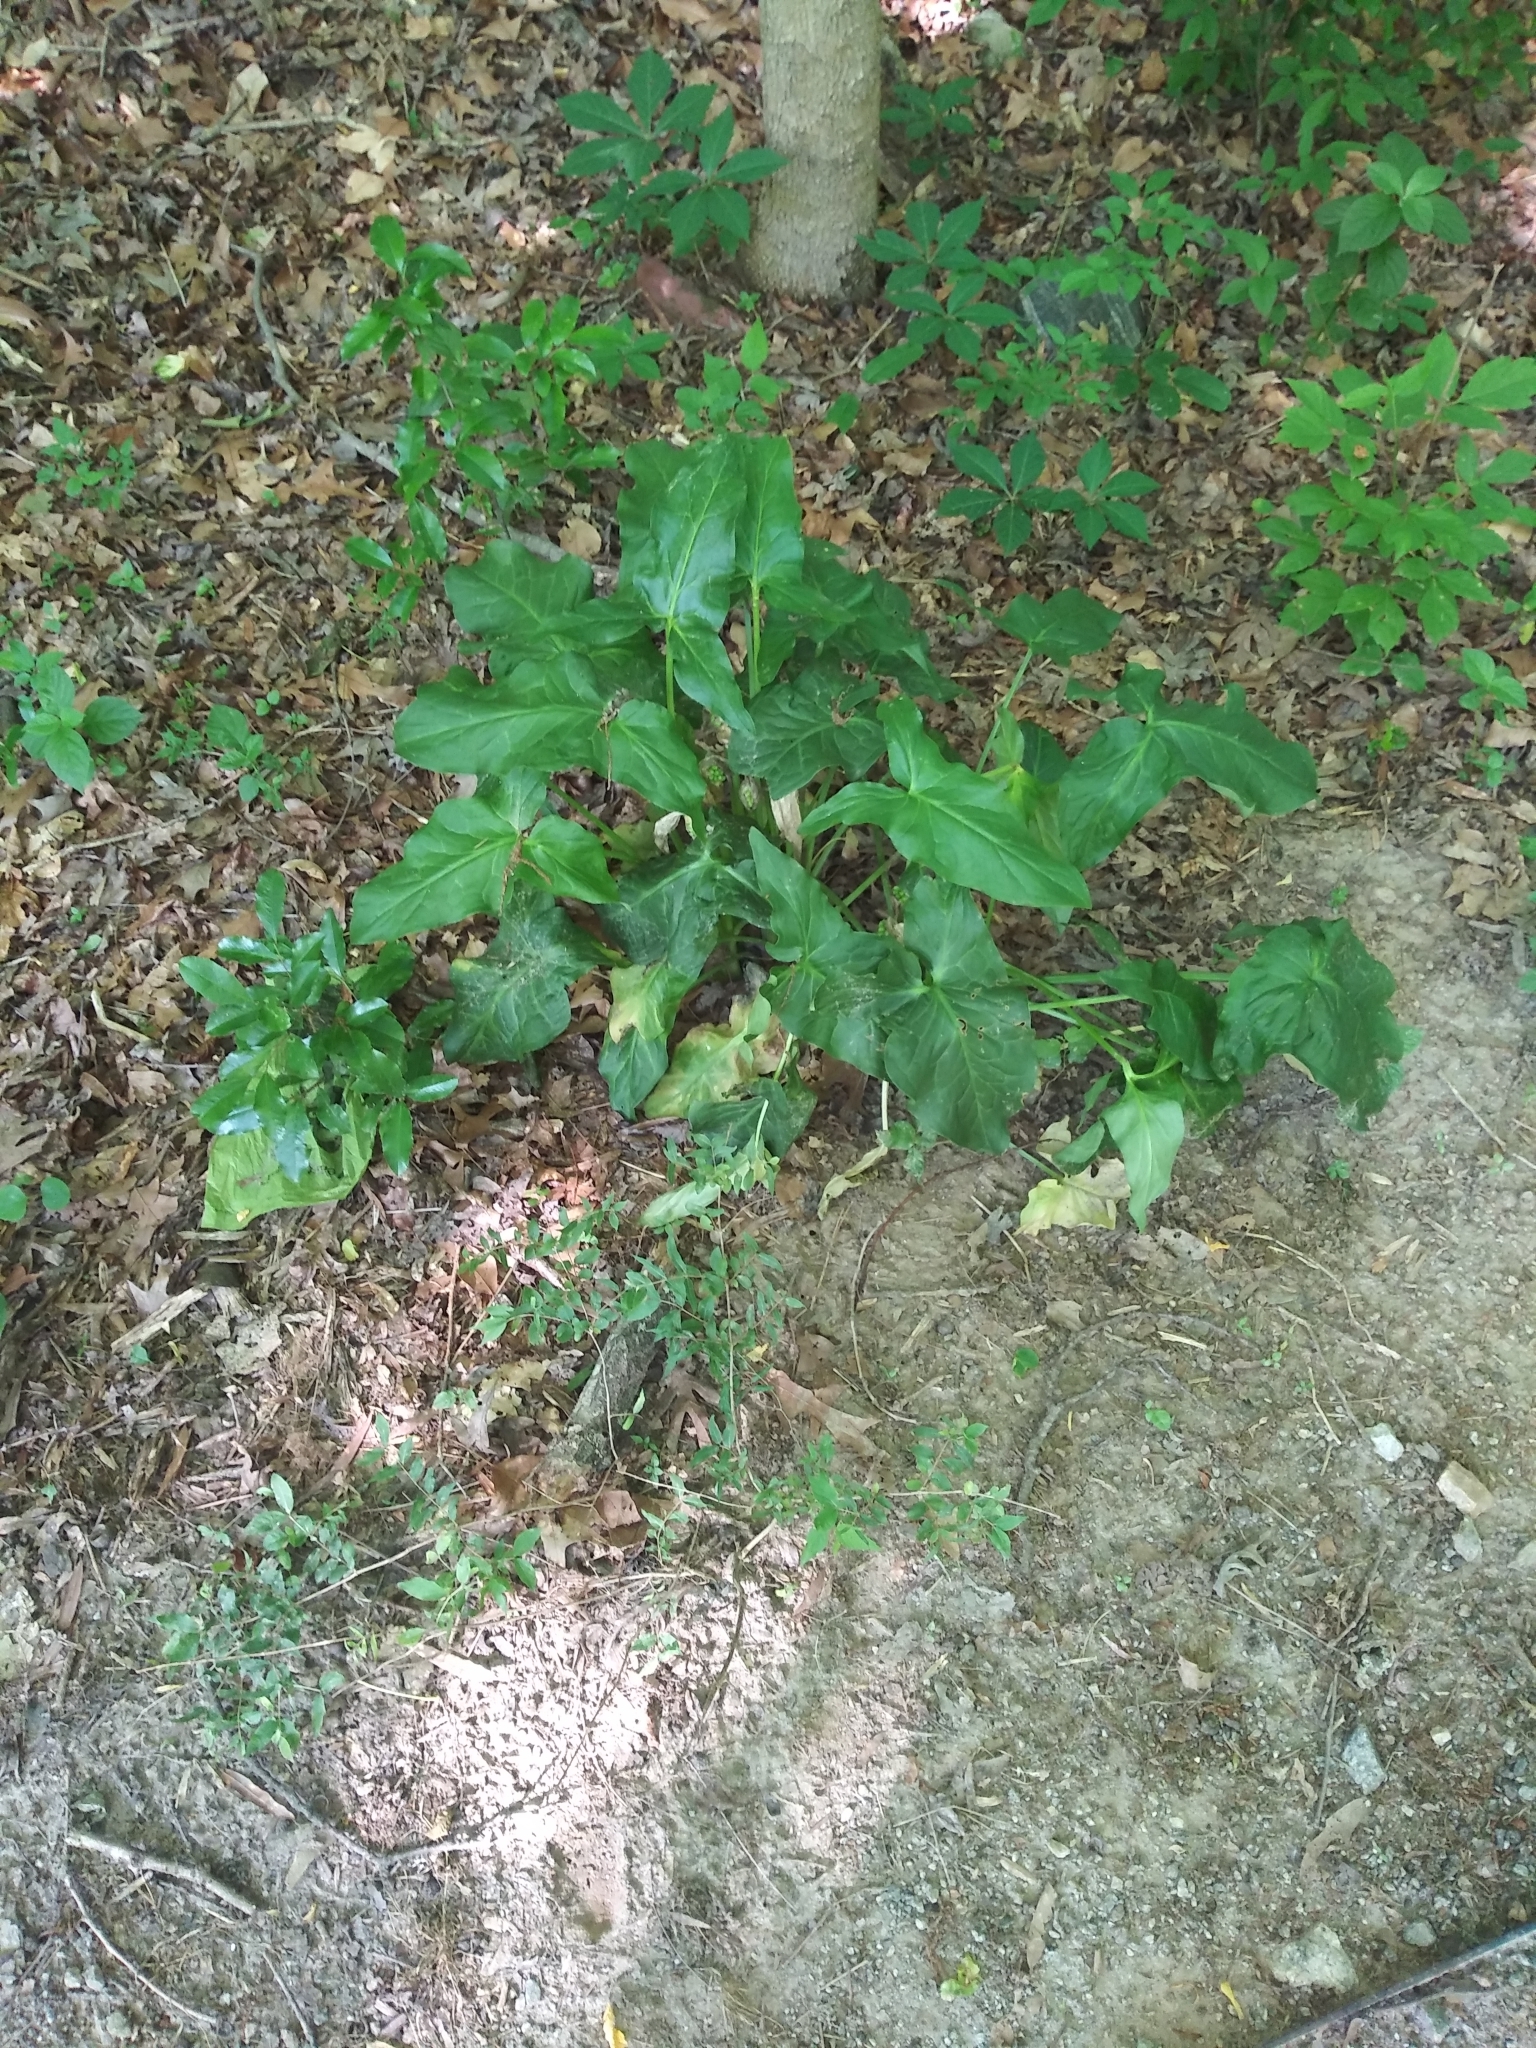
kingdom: Plantae
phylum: Tracheophyta
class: Liliopsida
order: Alismatales
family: Araceae
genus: Arum
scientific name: Arum italicum
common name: Italian lords-and-ladies
